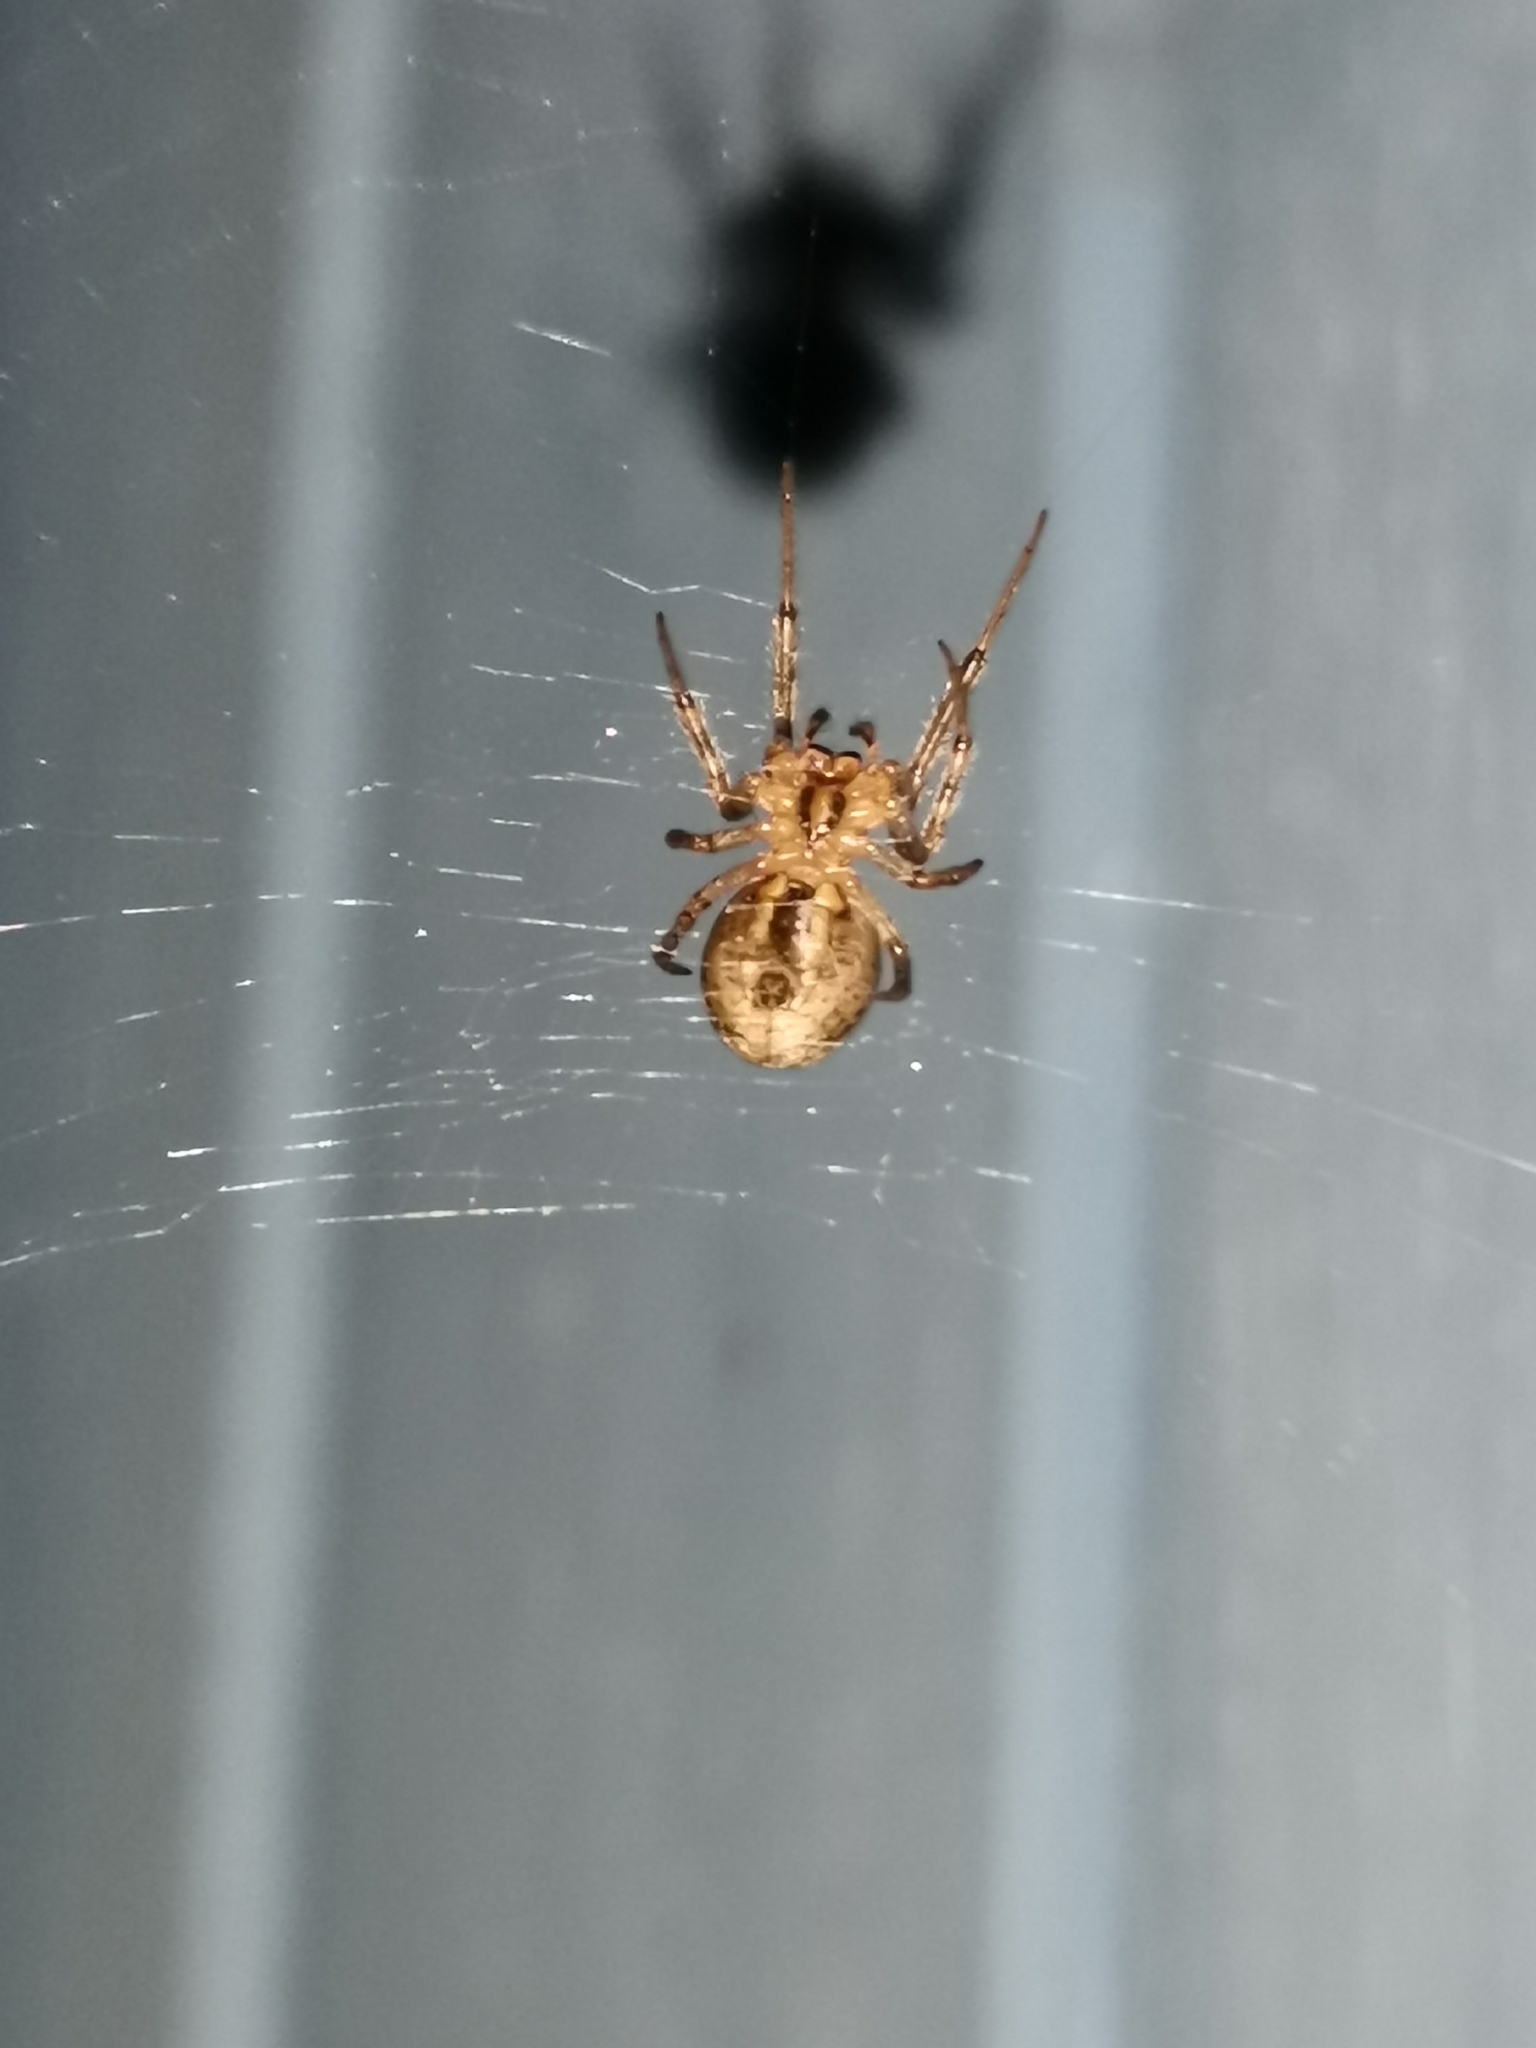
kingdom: Animalia
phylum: Arthropoda
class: Arachnida
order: Araneae
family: Araneidae
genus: Zygiella
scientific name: Zygiella x-notata
